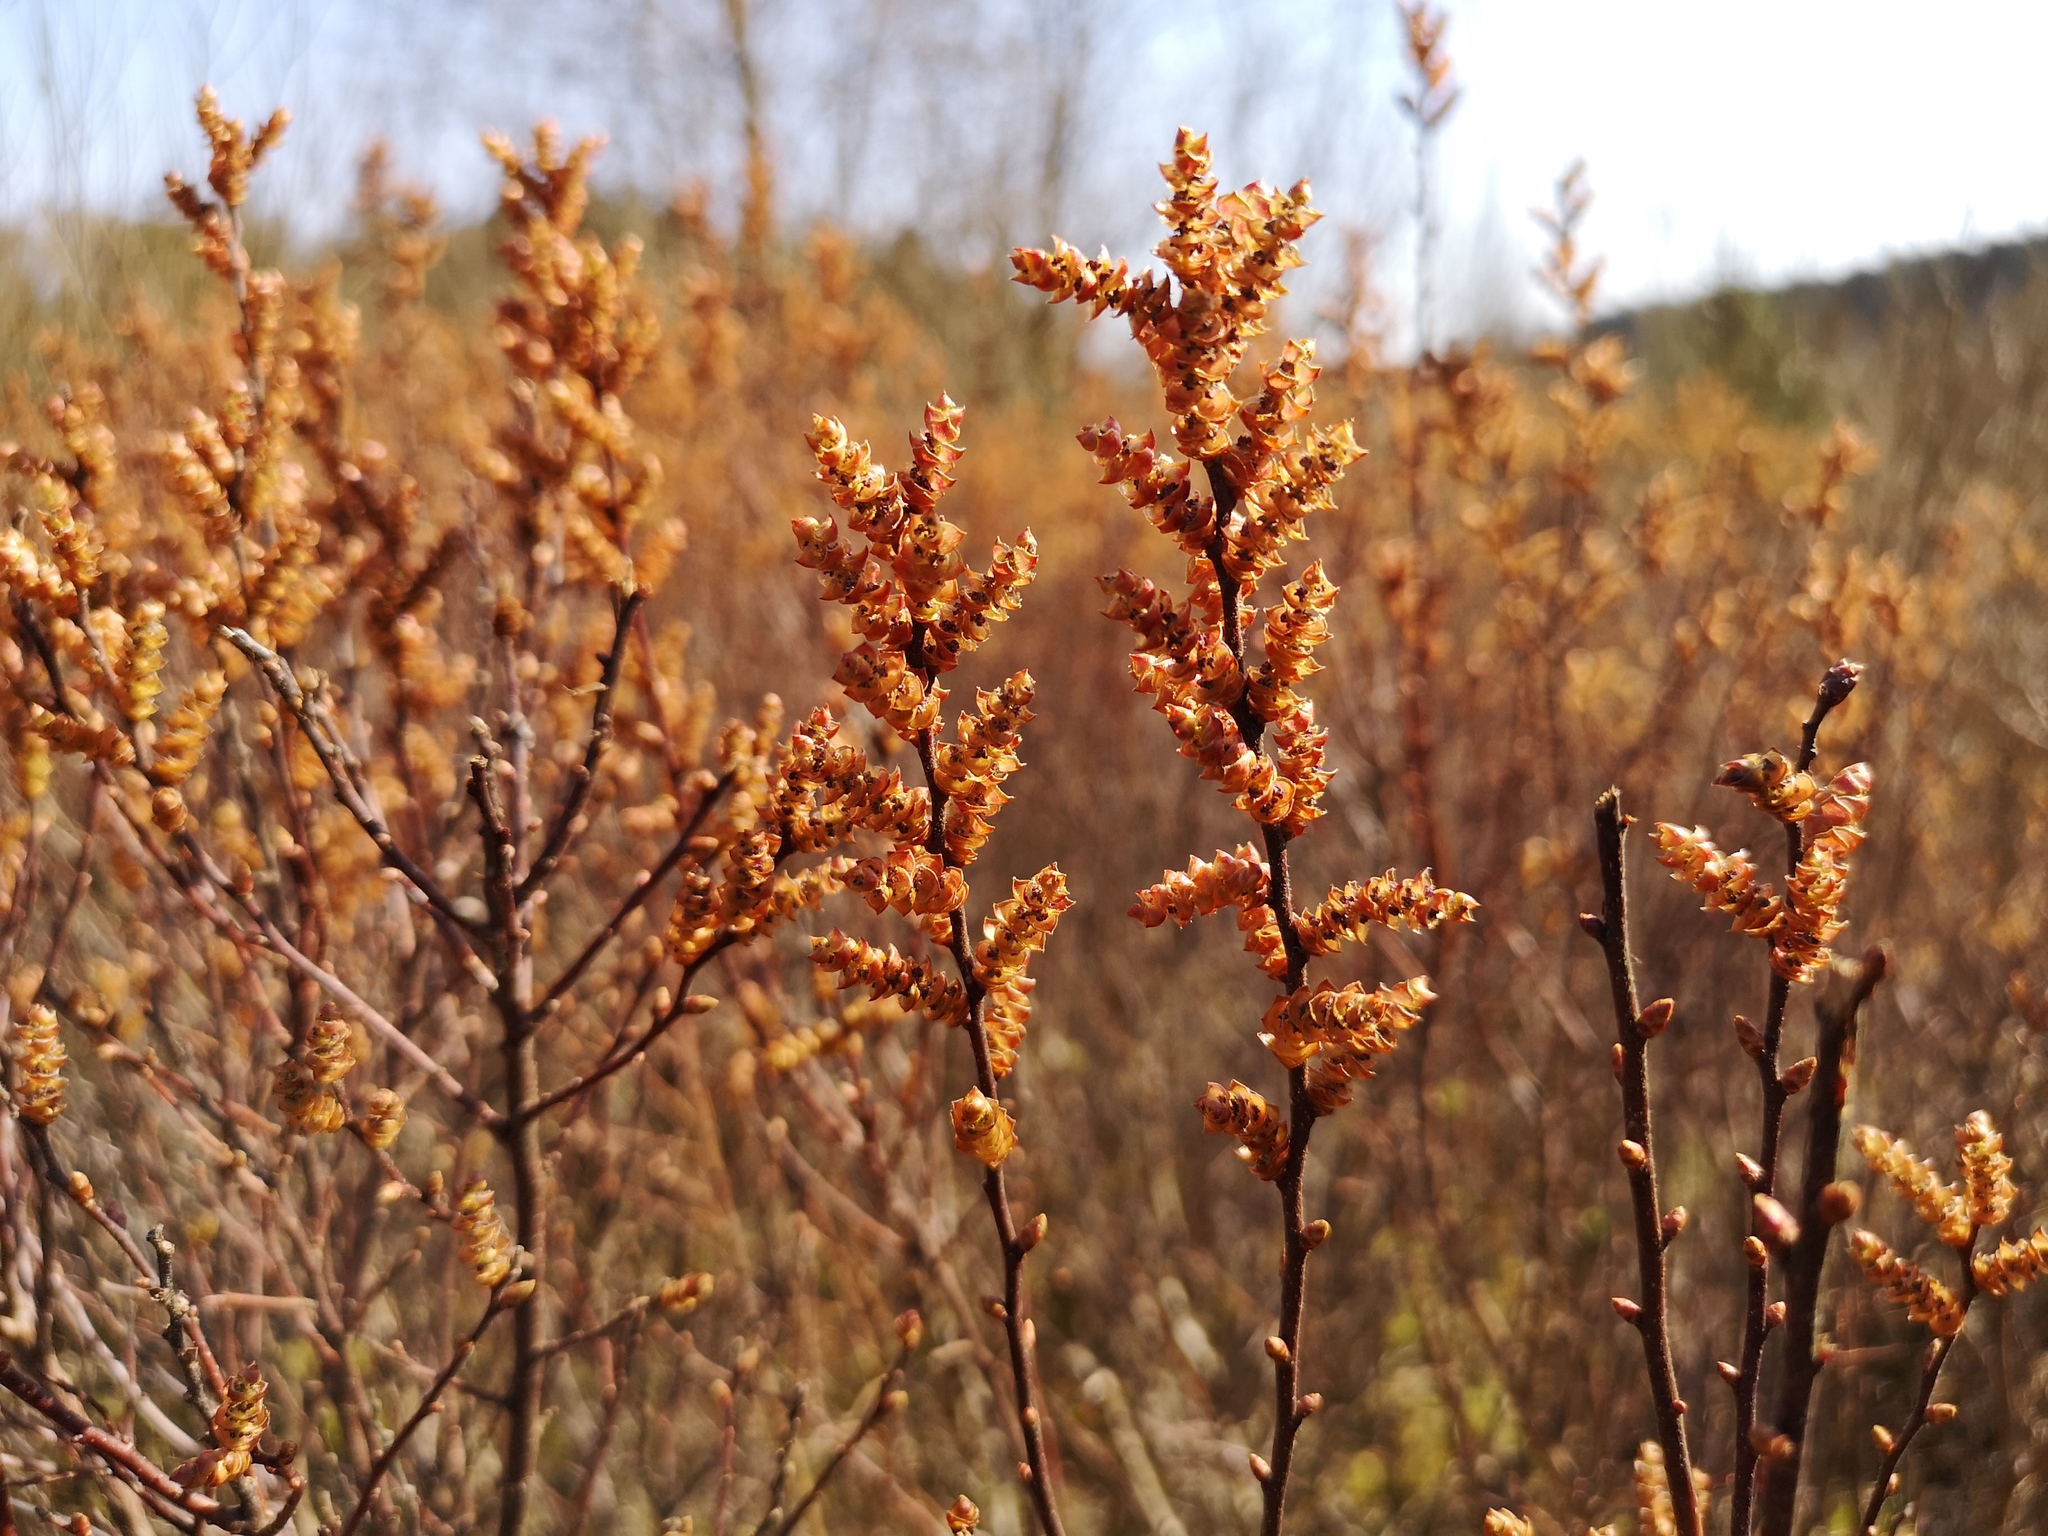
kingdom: Plantae
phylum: Tracheophyta
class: Magnoliopsida
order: Fagales
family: Myricaceae
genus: Myrica
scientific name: Myrica gale
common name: Sweet gale
